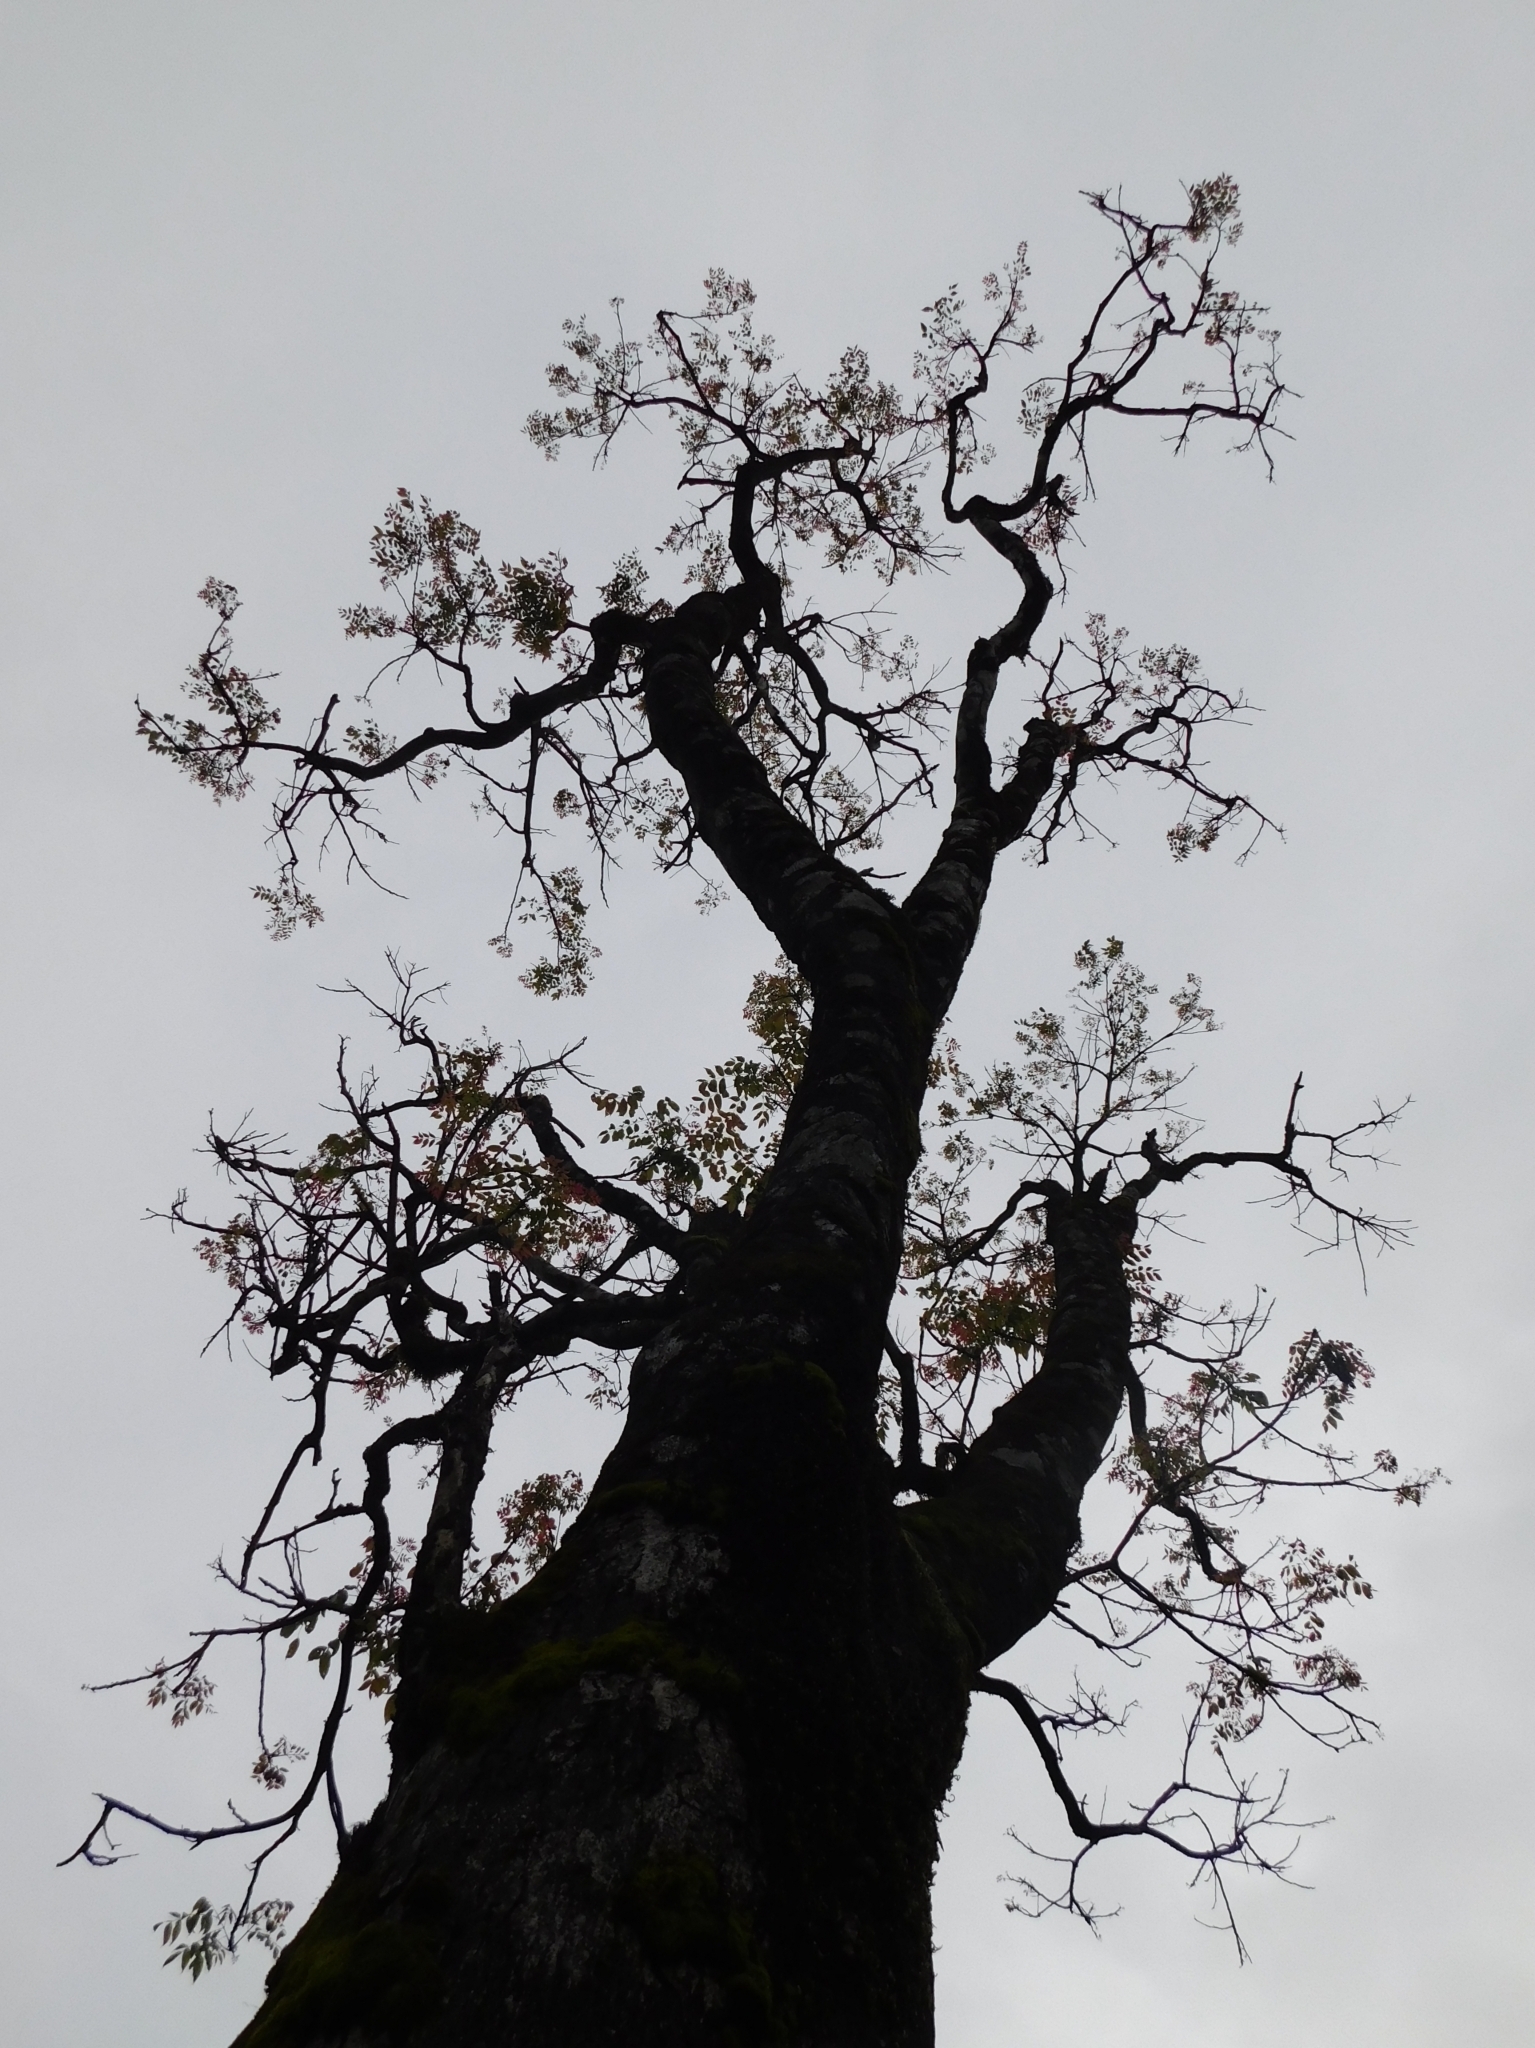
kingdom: Plantae
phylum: Tracheophyta
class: Magnoliopsida
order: Fabales
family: Fabaceae
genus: Acrocarpus
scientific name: Acrocarpus fraxinifolius
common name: Kenya coffeeshade
